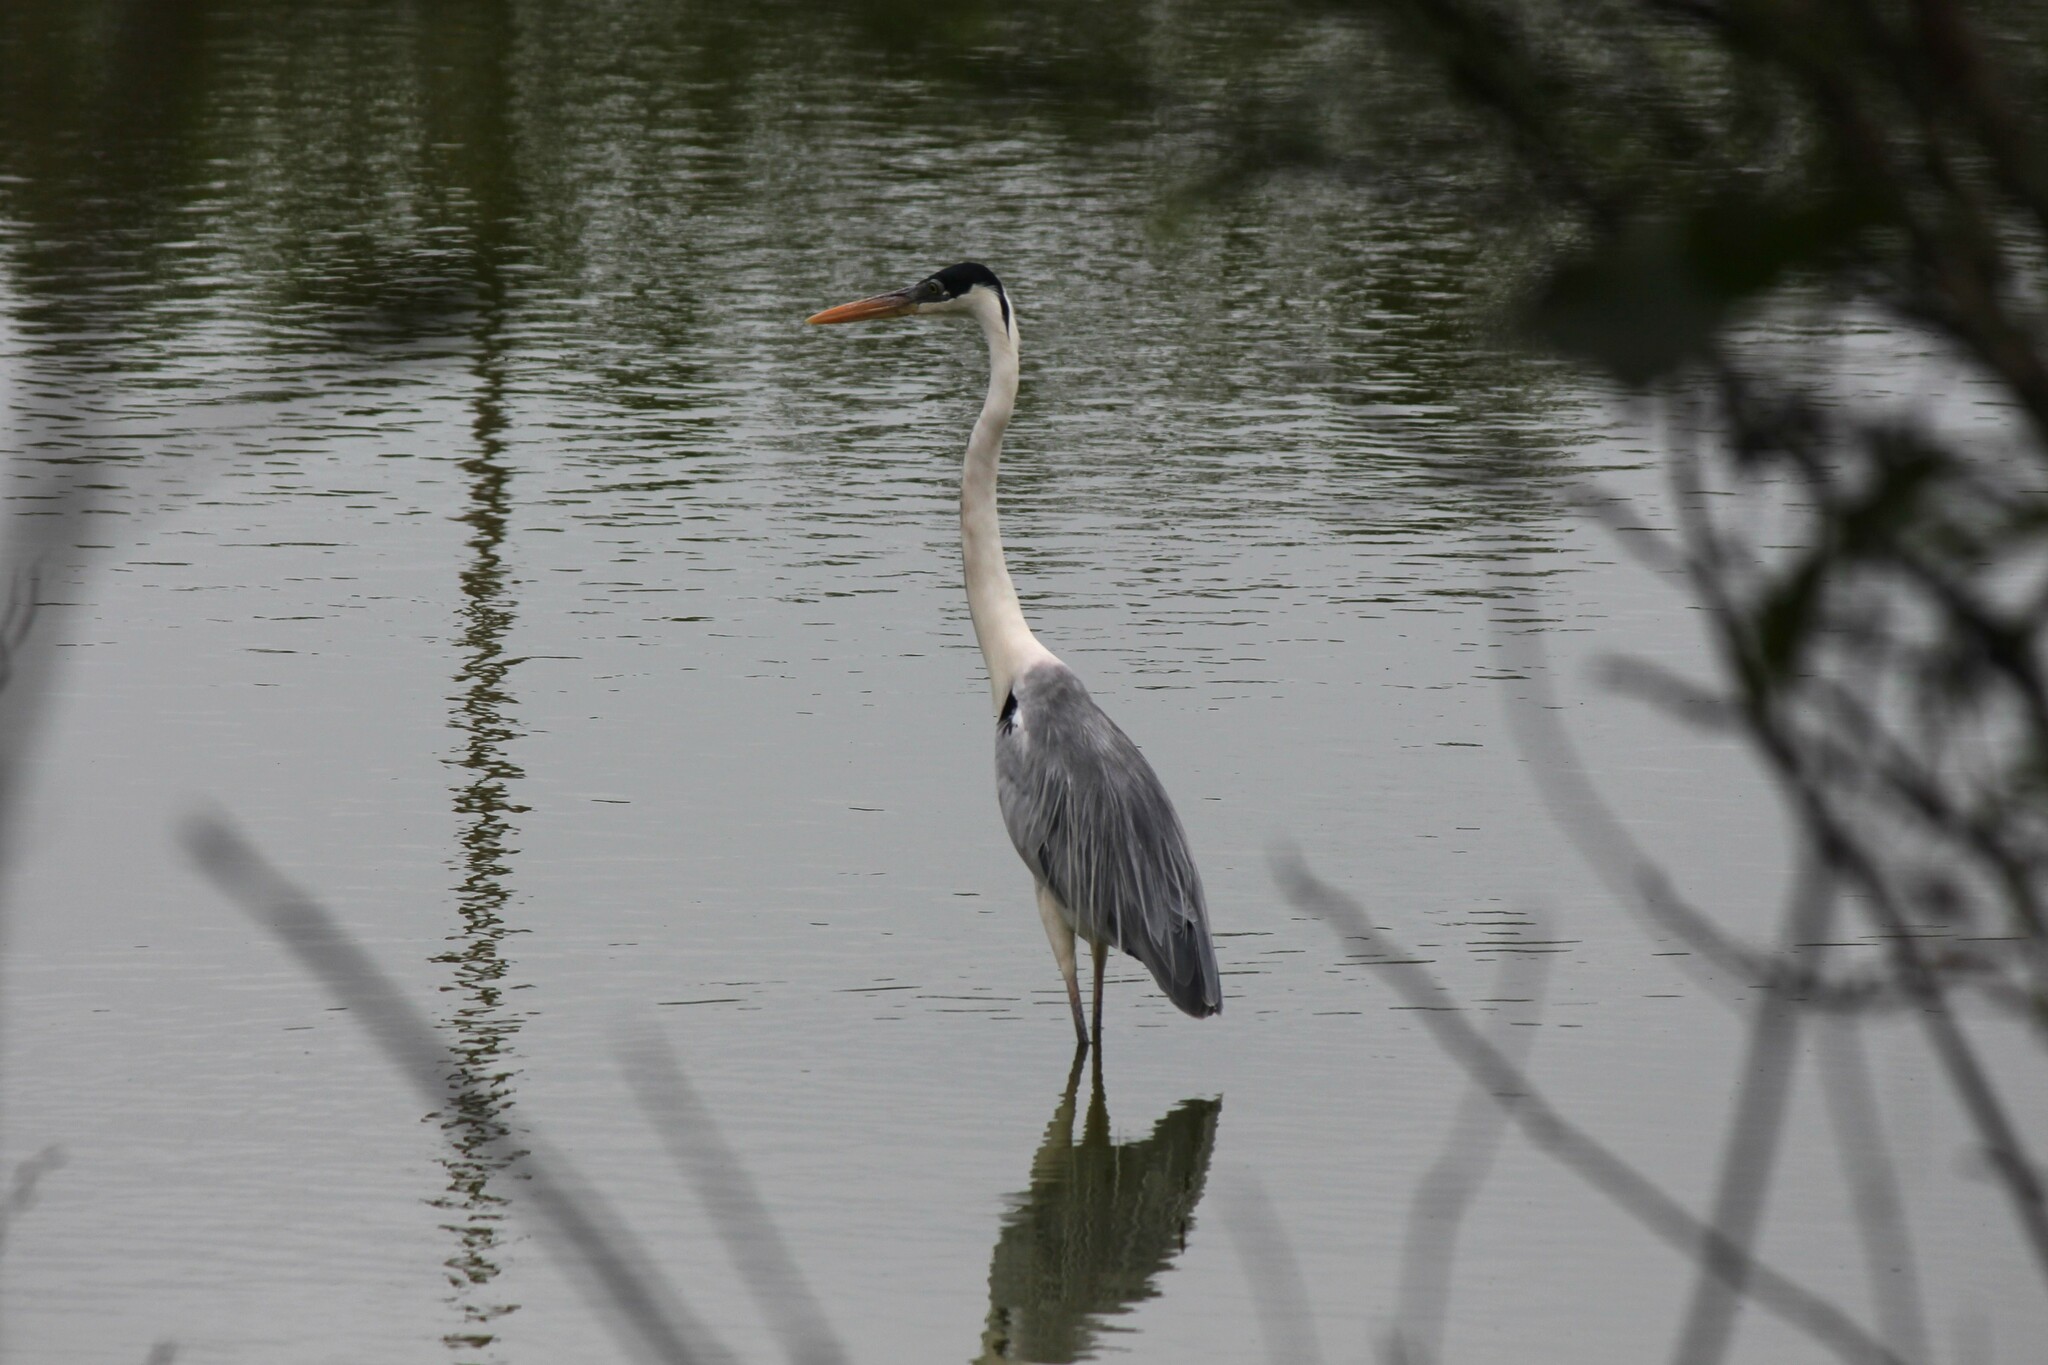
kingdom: Animalia
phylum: Chordata
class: Aves
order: Pelecaniformes
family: Ardeidae
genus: Ardea
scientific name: Ardea cocoi
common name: Cocoi heron
